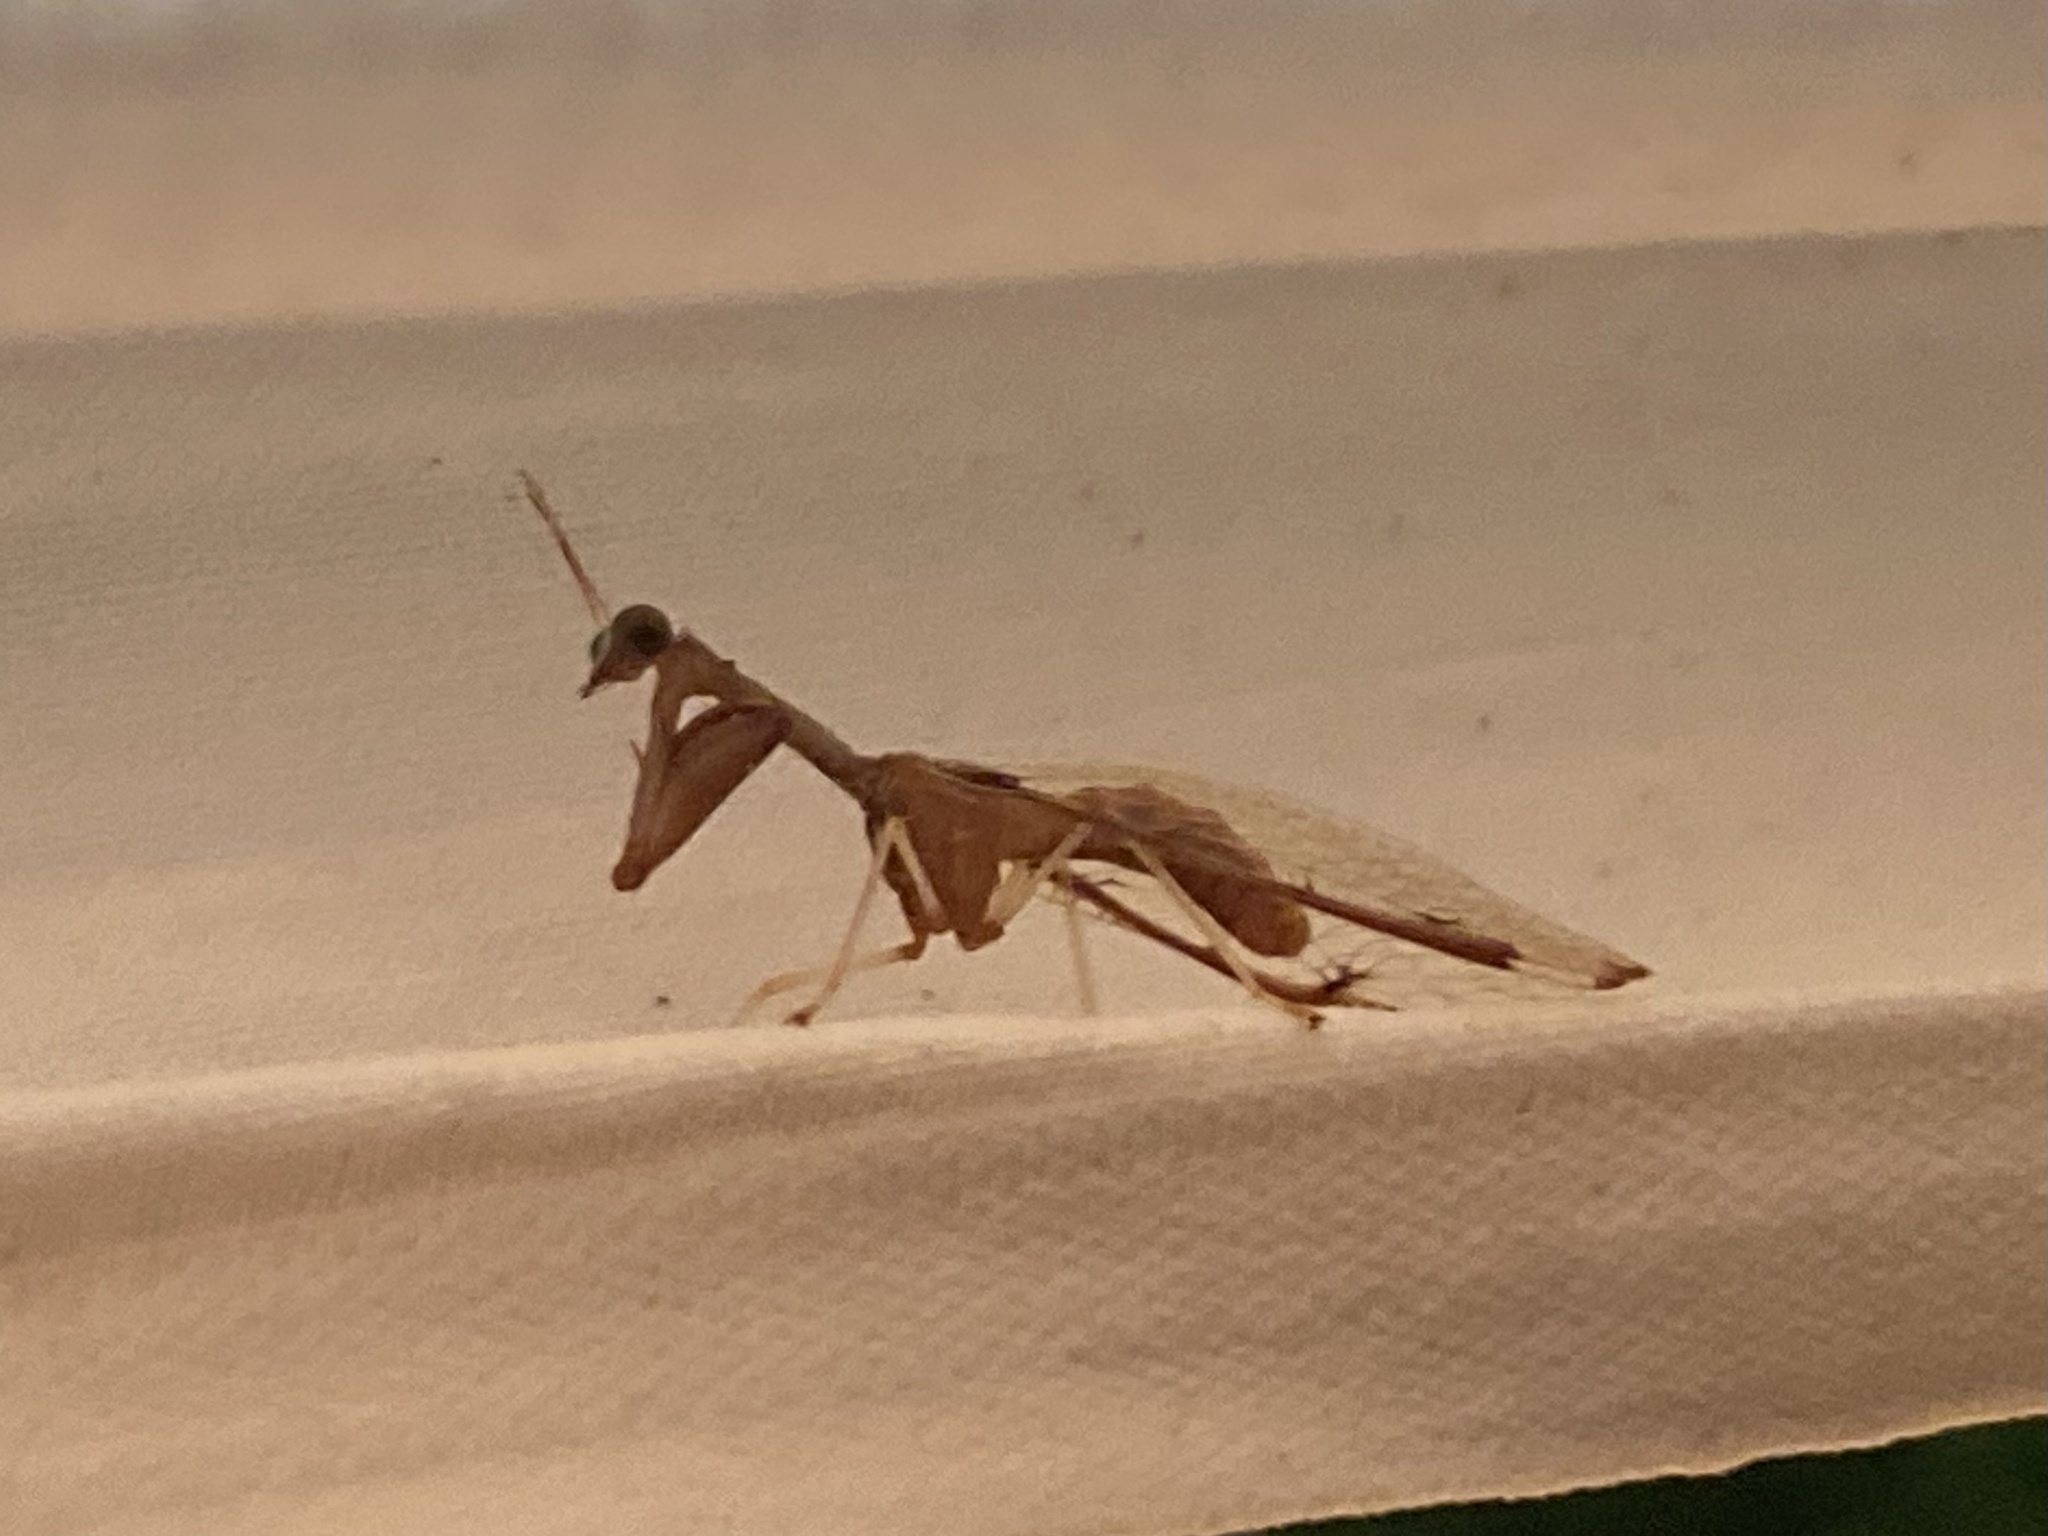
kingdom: Animalia
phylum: Arthropoda
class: Insecta
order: Neuroptera
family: Mantispidae
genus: Dicromantispa
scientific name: Dicromantispa interrupta
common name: Four-spotted mantidfly
